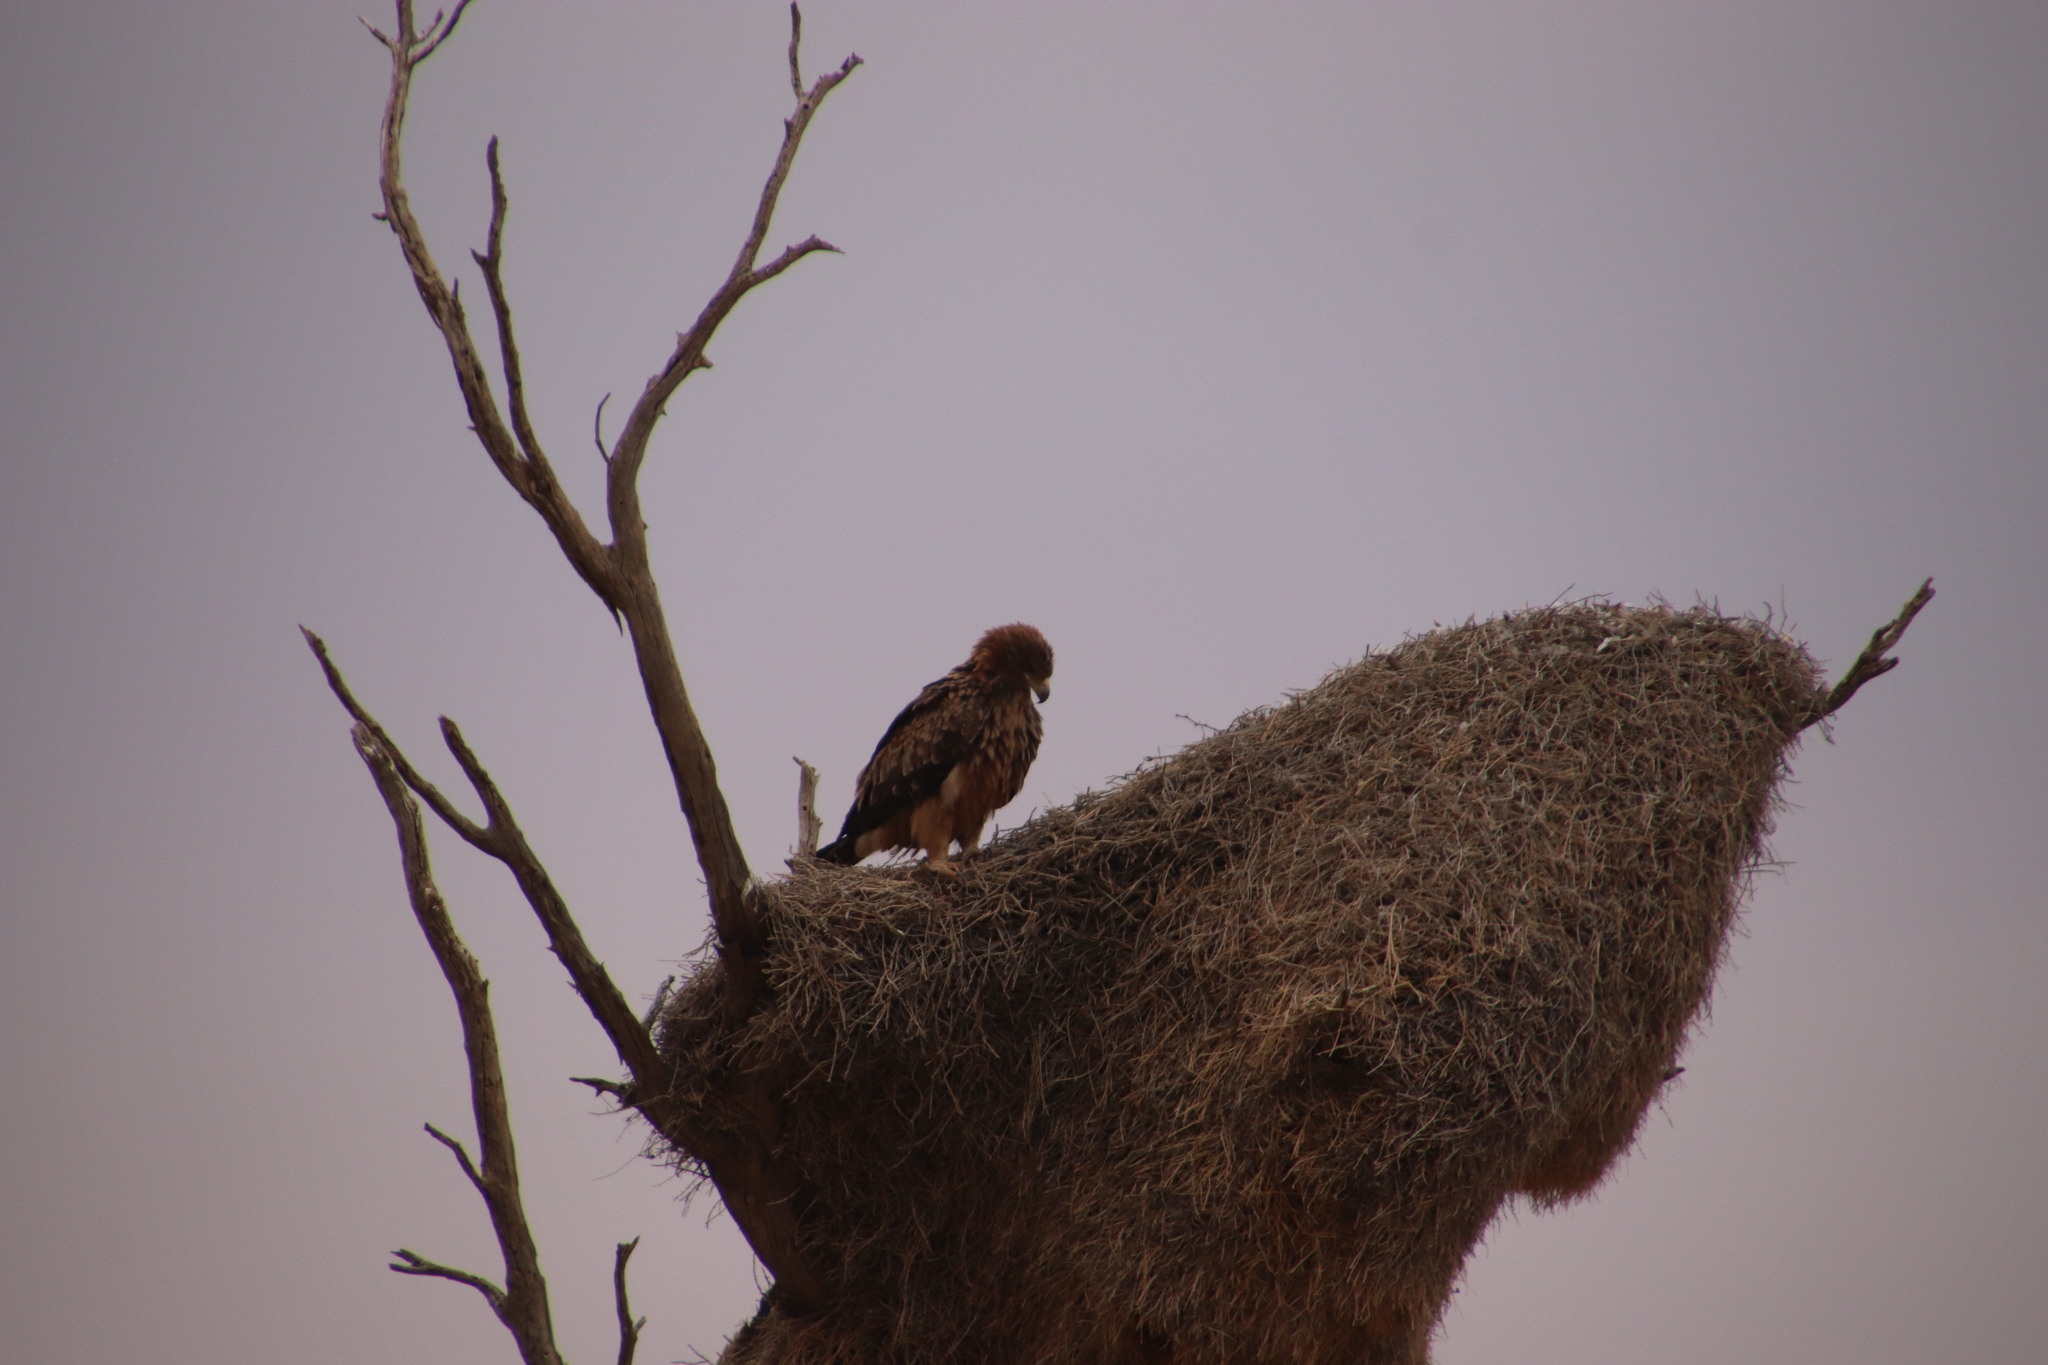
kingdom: Animalia
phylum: Chordata
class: Aves
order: Accipitriformes
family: Accipitridae
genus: Aquila
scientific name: Aquila rapax
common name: Tawny eagle
